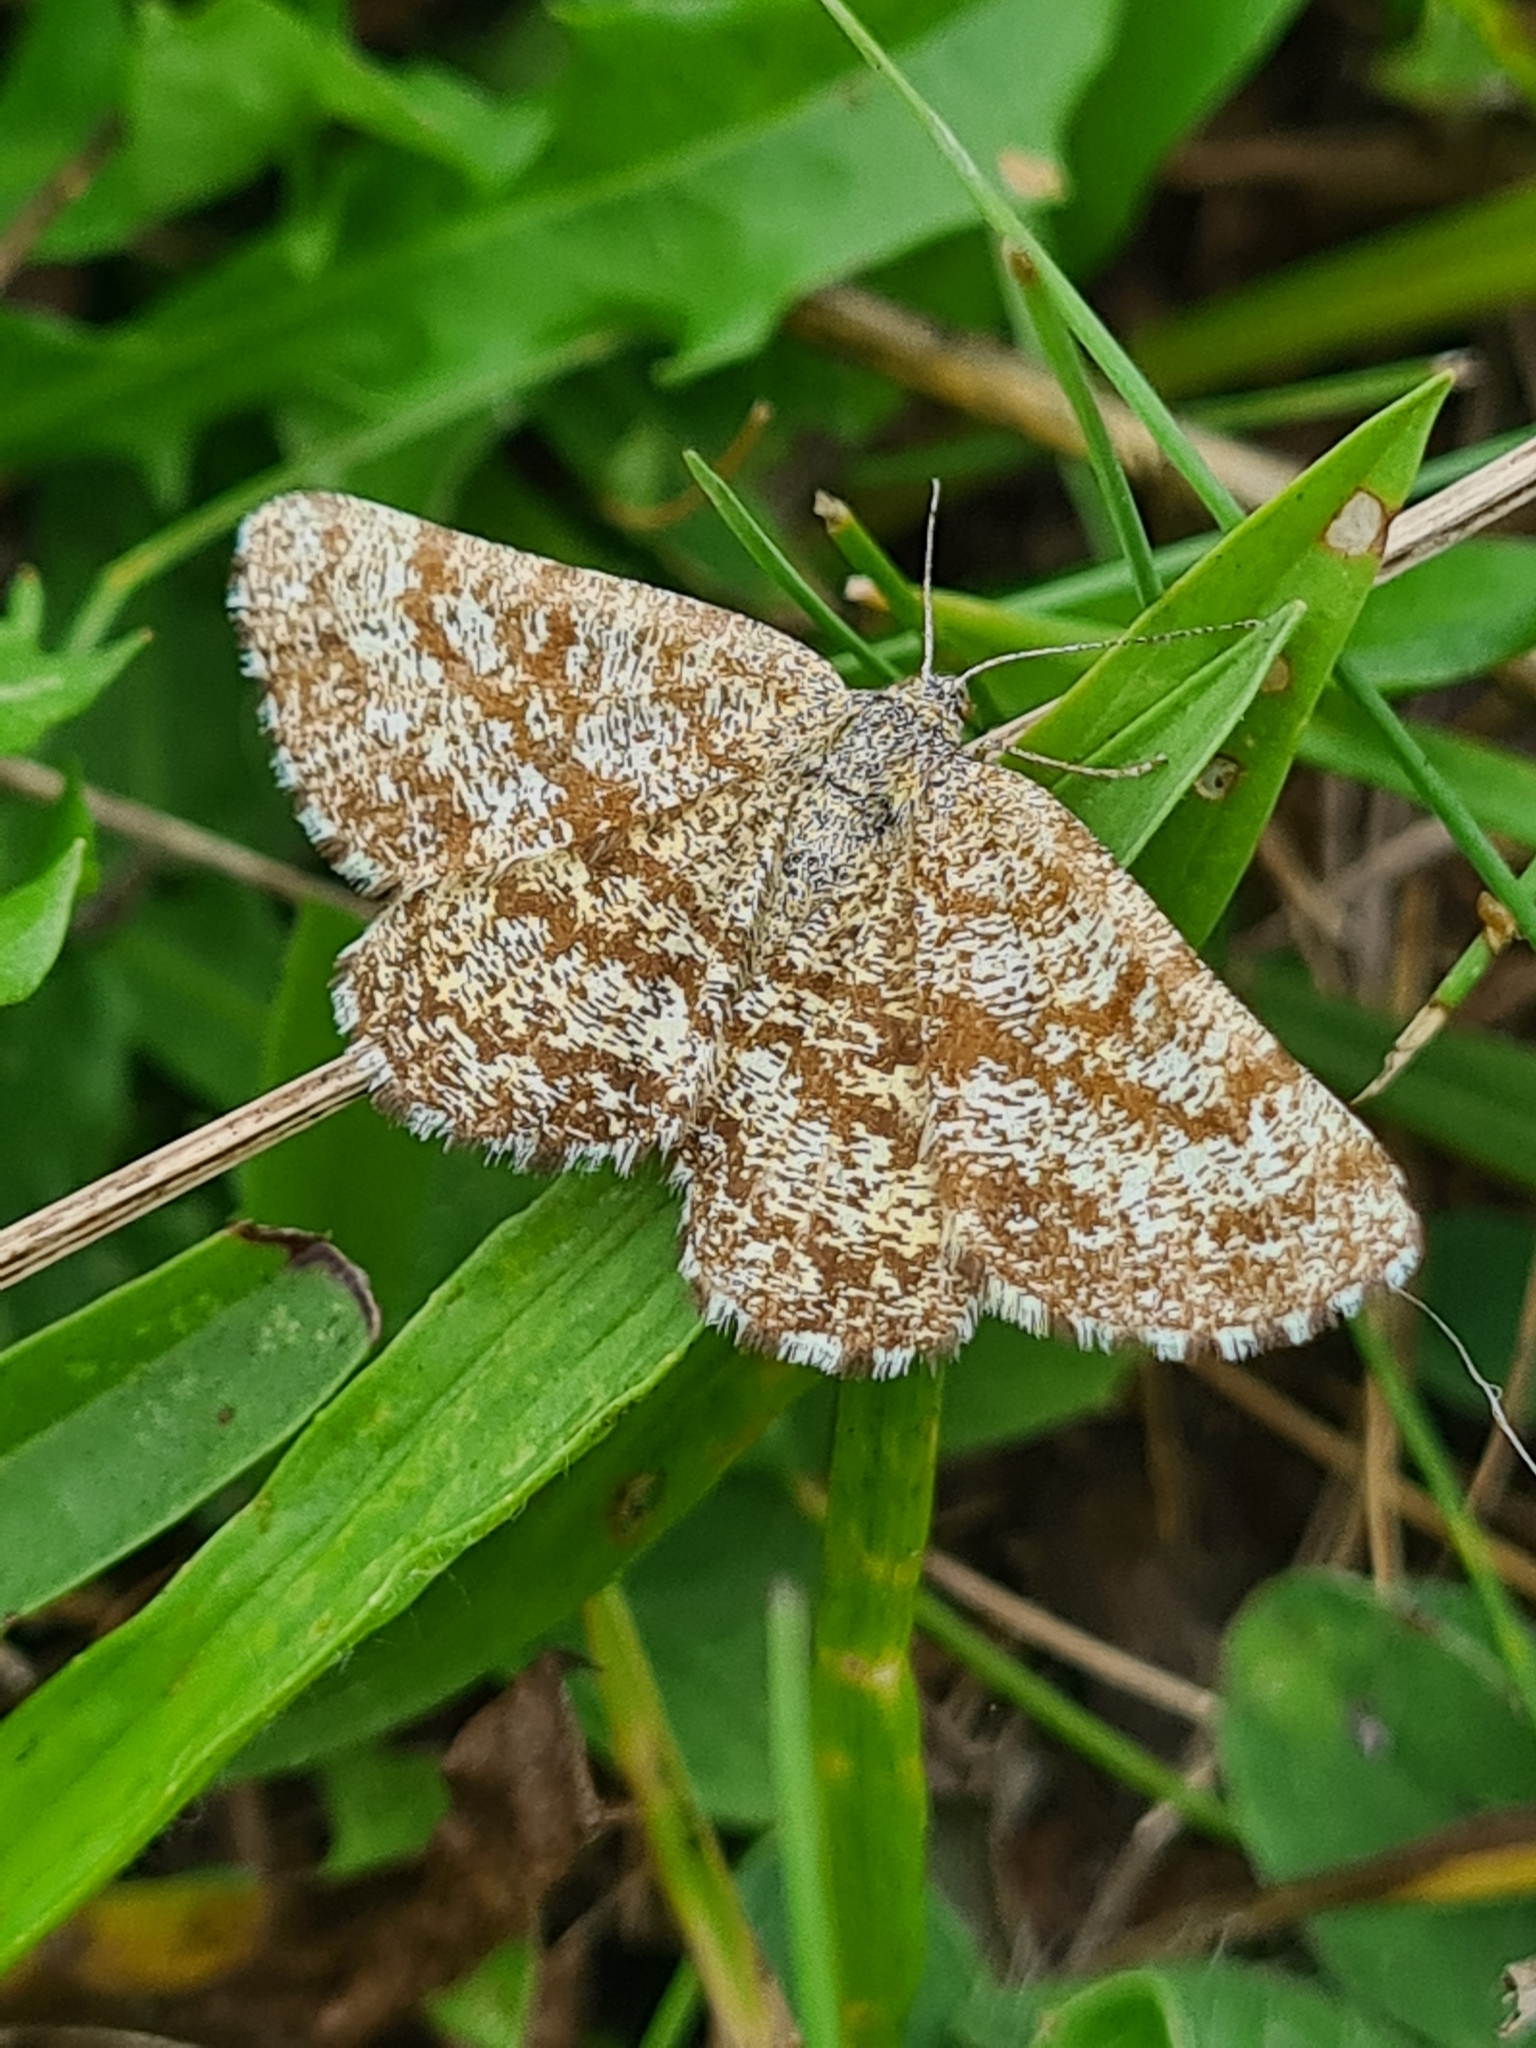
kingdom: Animalia
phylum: Arthropoda
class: Insecta
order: Lepidoptera
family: Geometridae
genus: Ematurga
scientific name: Ematurga atomaria
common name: Common heath
